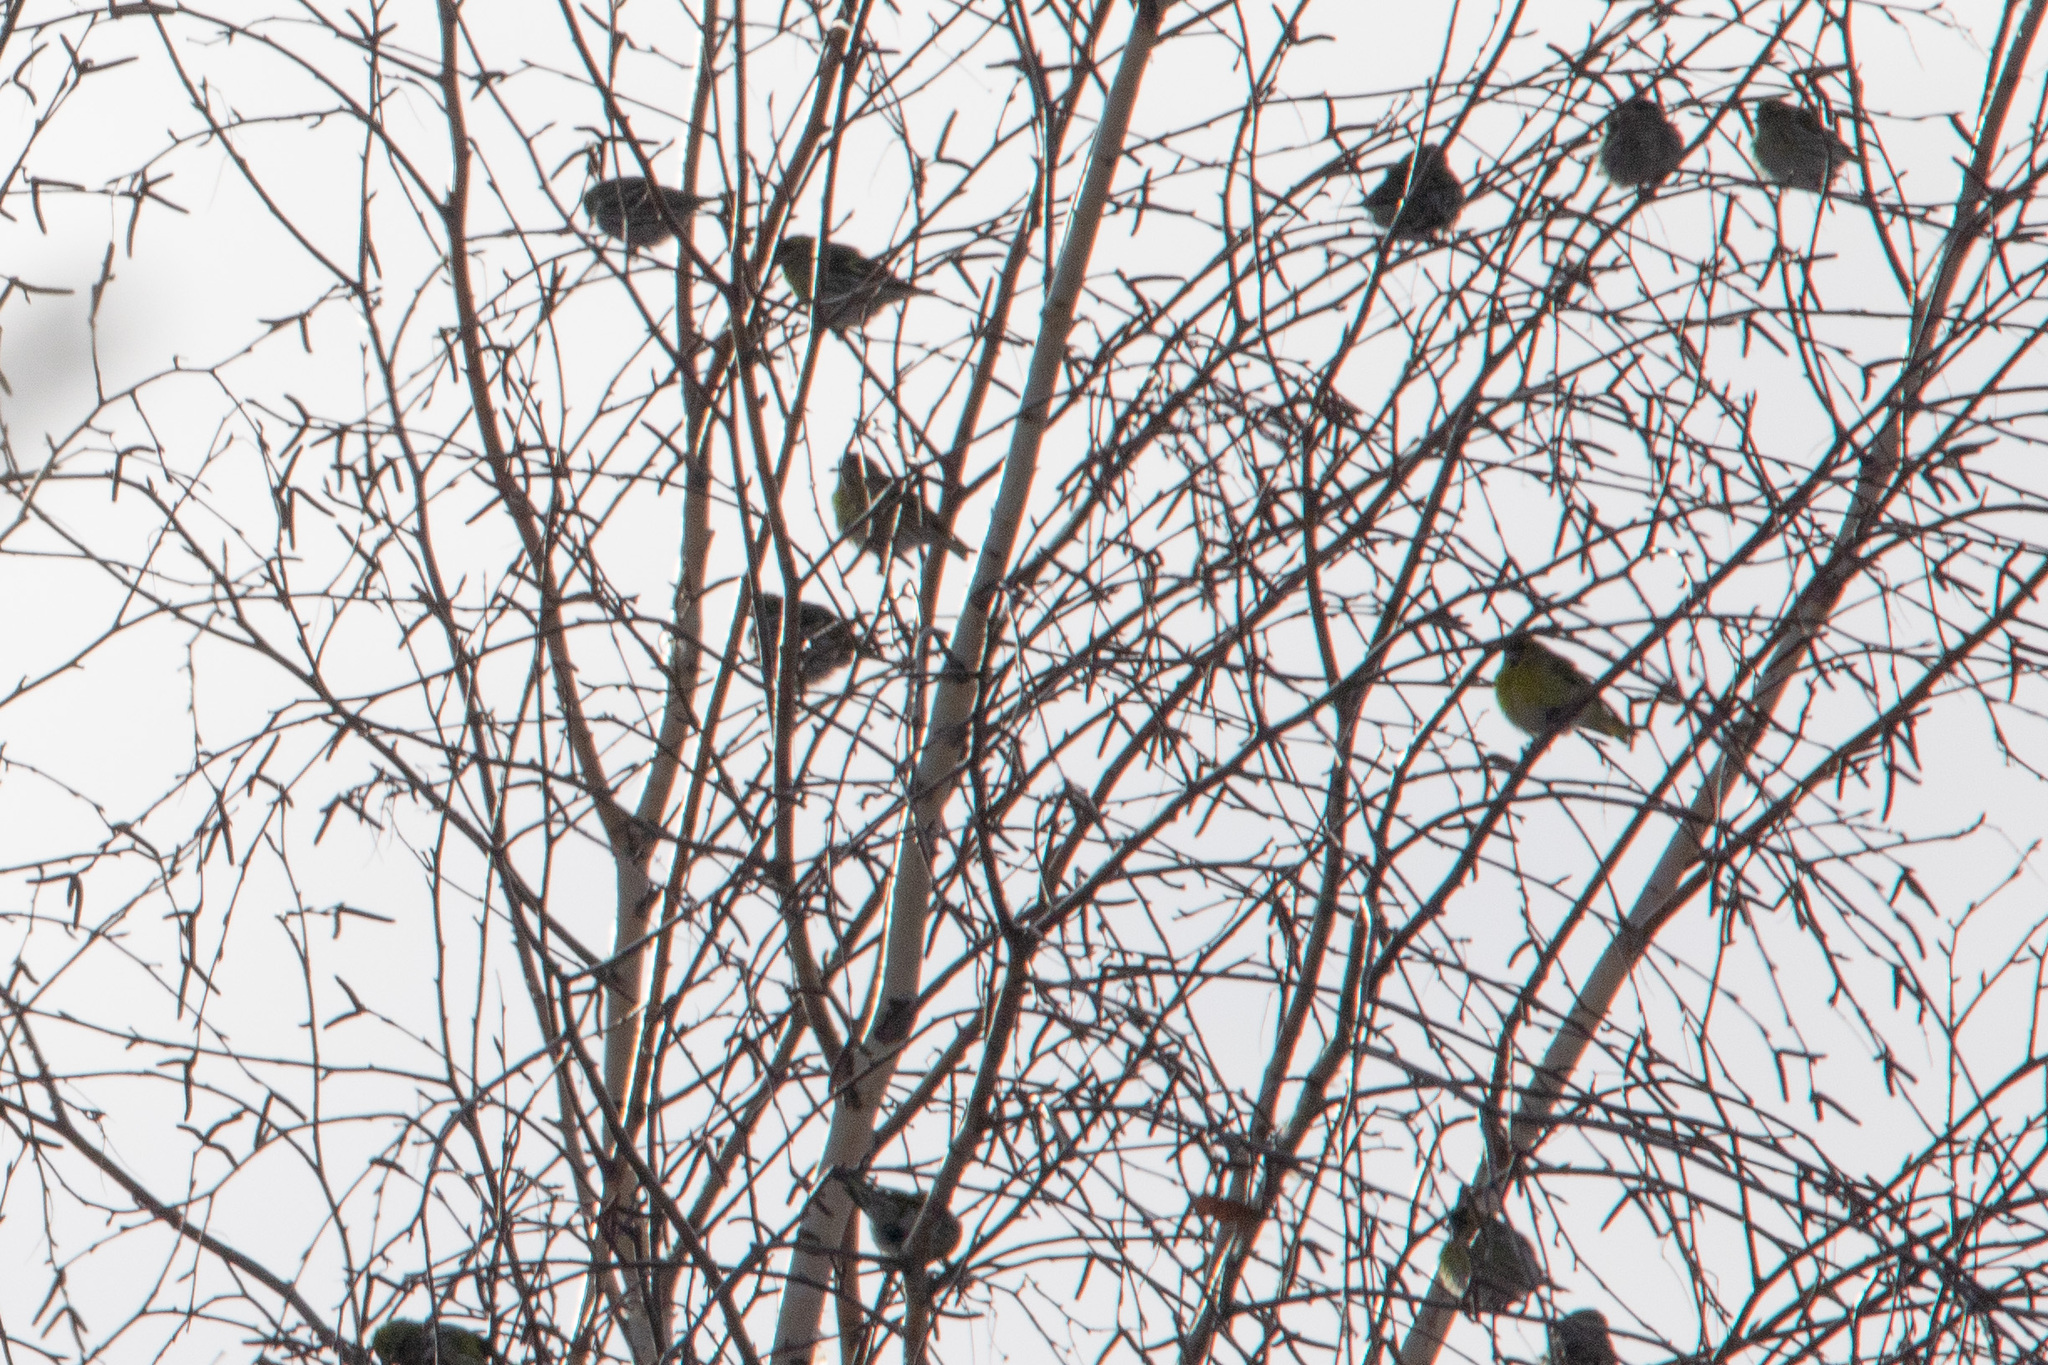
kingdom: Animalia
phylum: Chordata
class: Aves
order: Passeriformes
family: Fringillidae
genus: Spinus
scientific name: Spinus spinus
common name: Eurasian siskin
